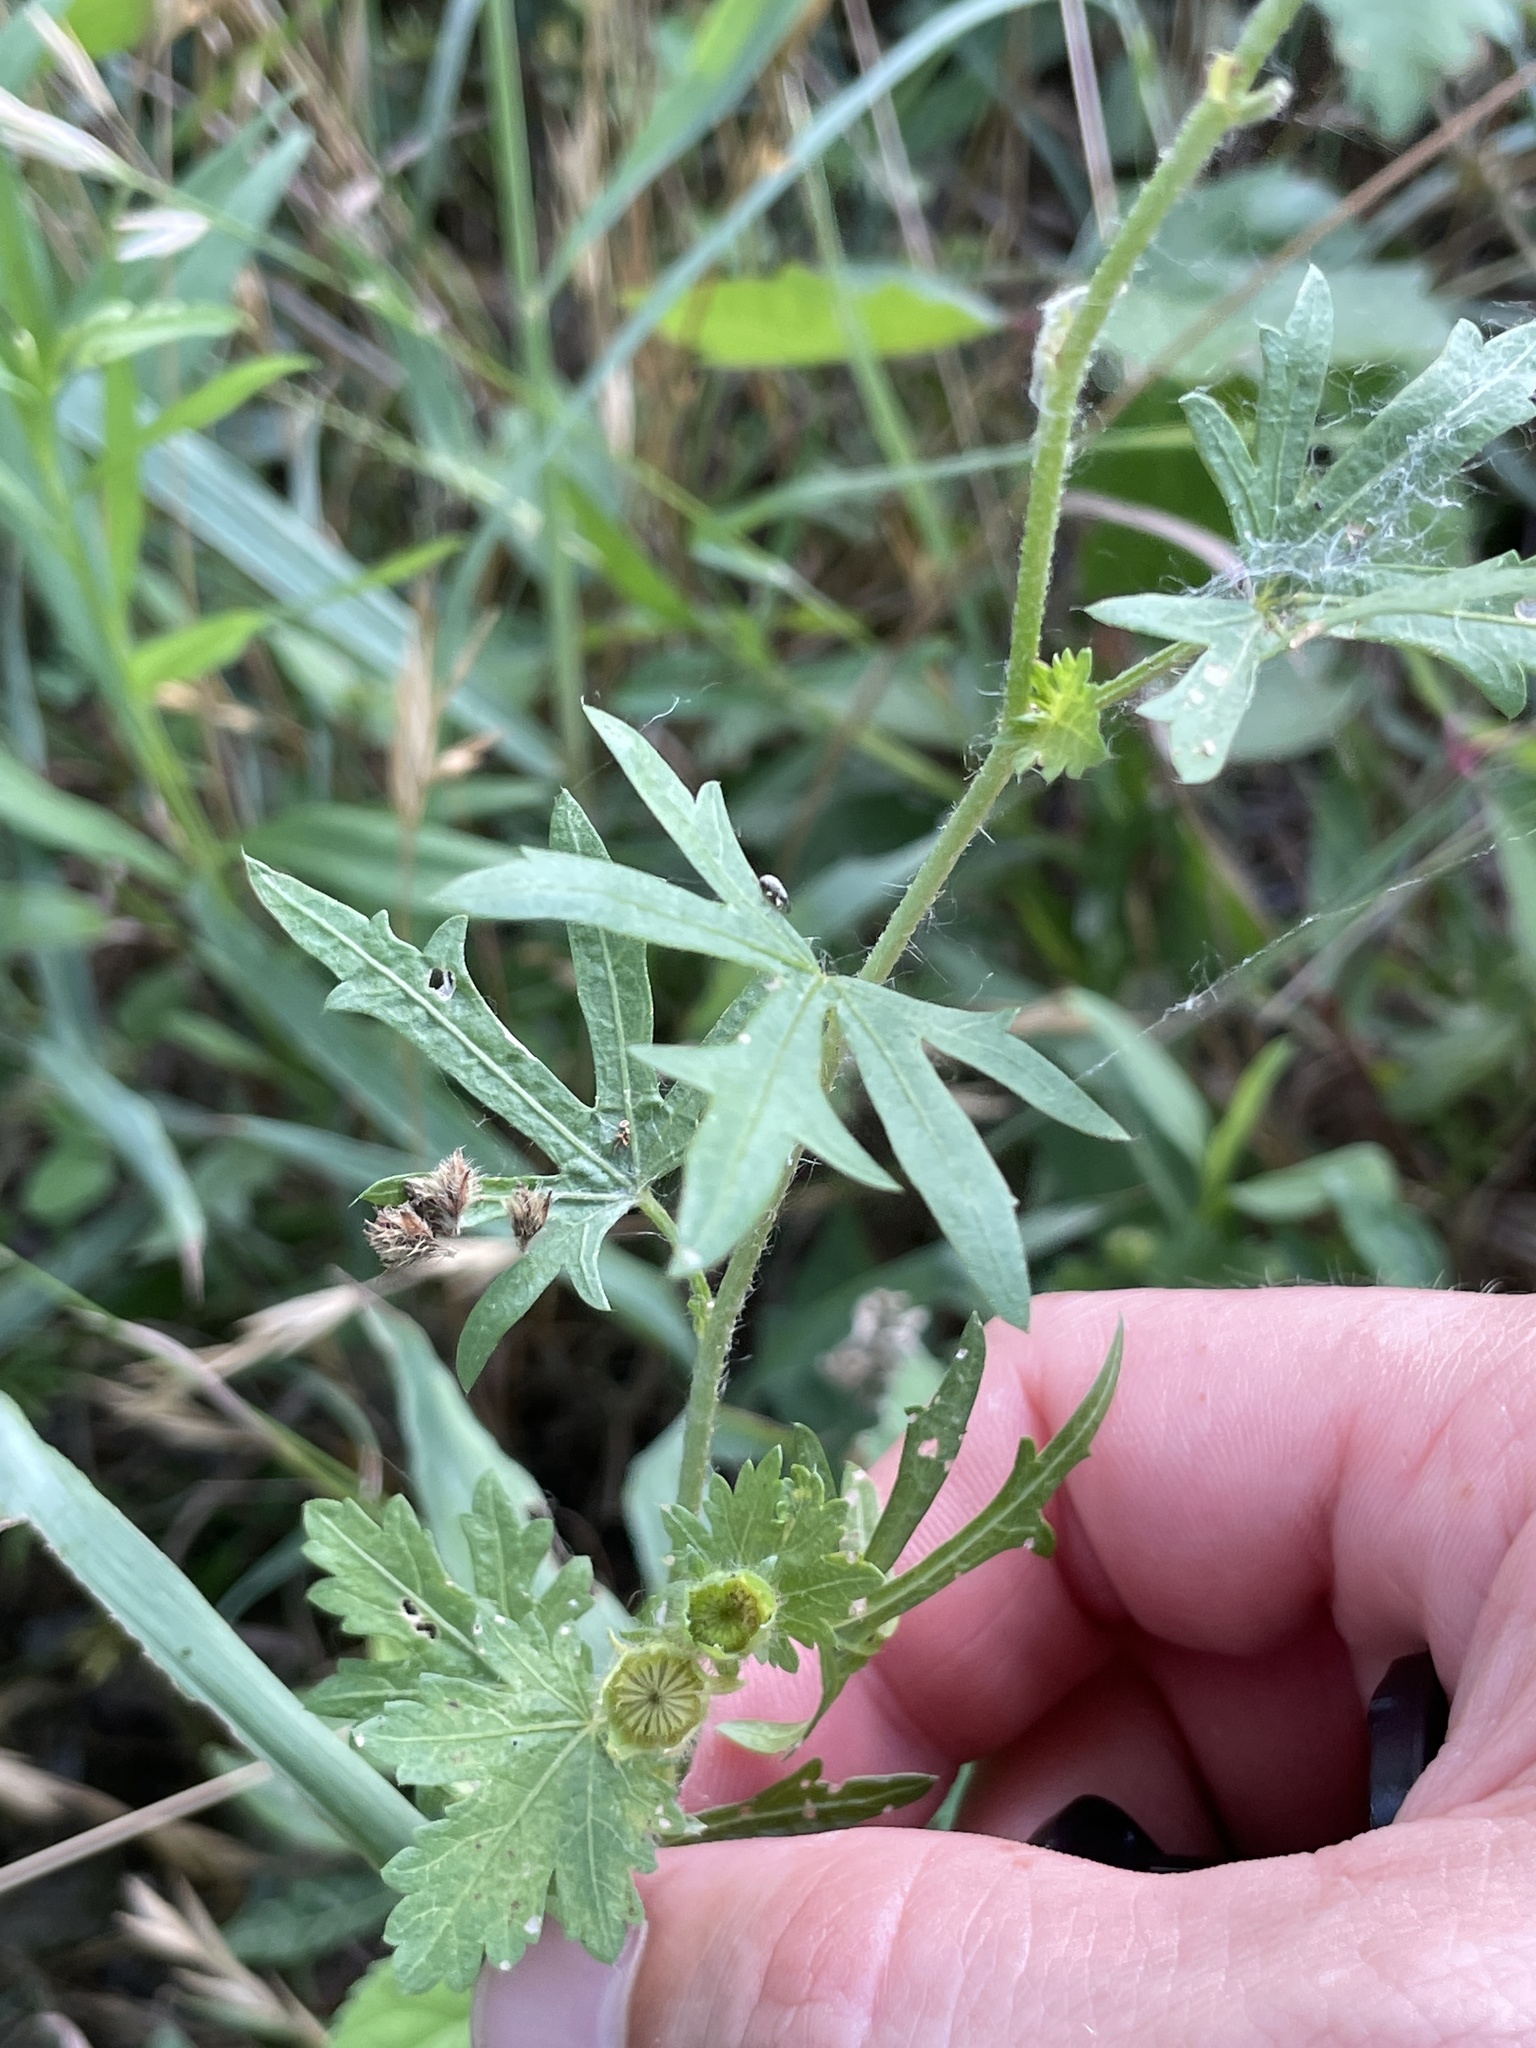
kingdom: Plantae
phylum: Tracheophyta
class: Magnoliopsida
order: Malvales
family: Malvaceae
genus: Modiola
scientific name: Modiola caroliniana
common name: Carolina bristlemallow
